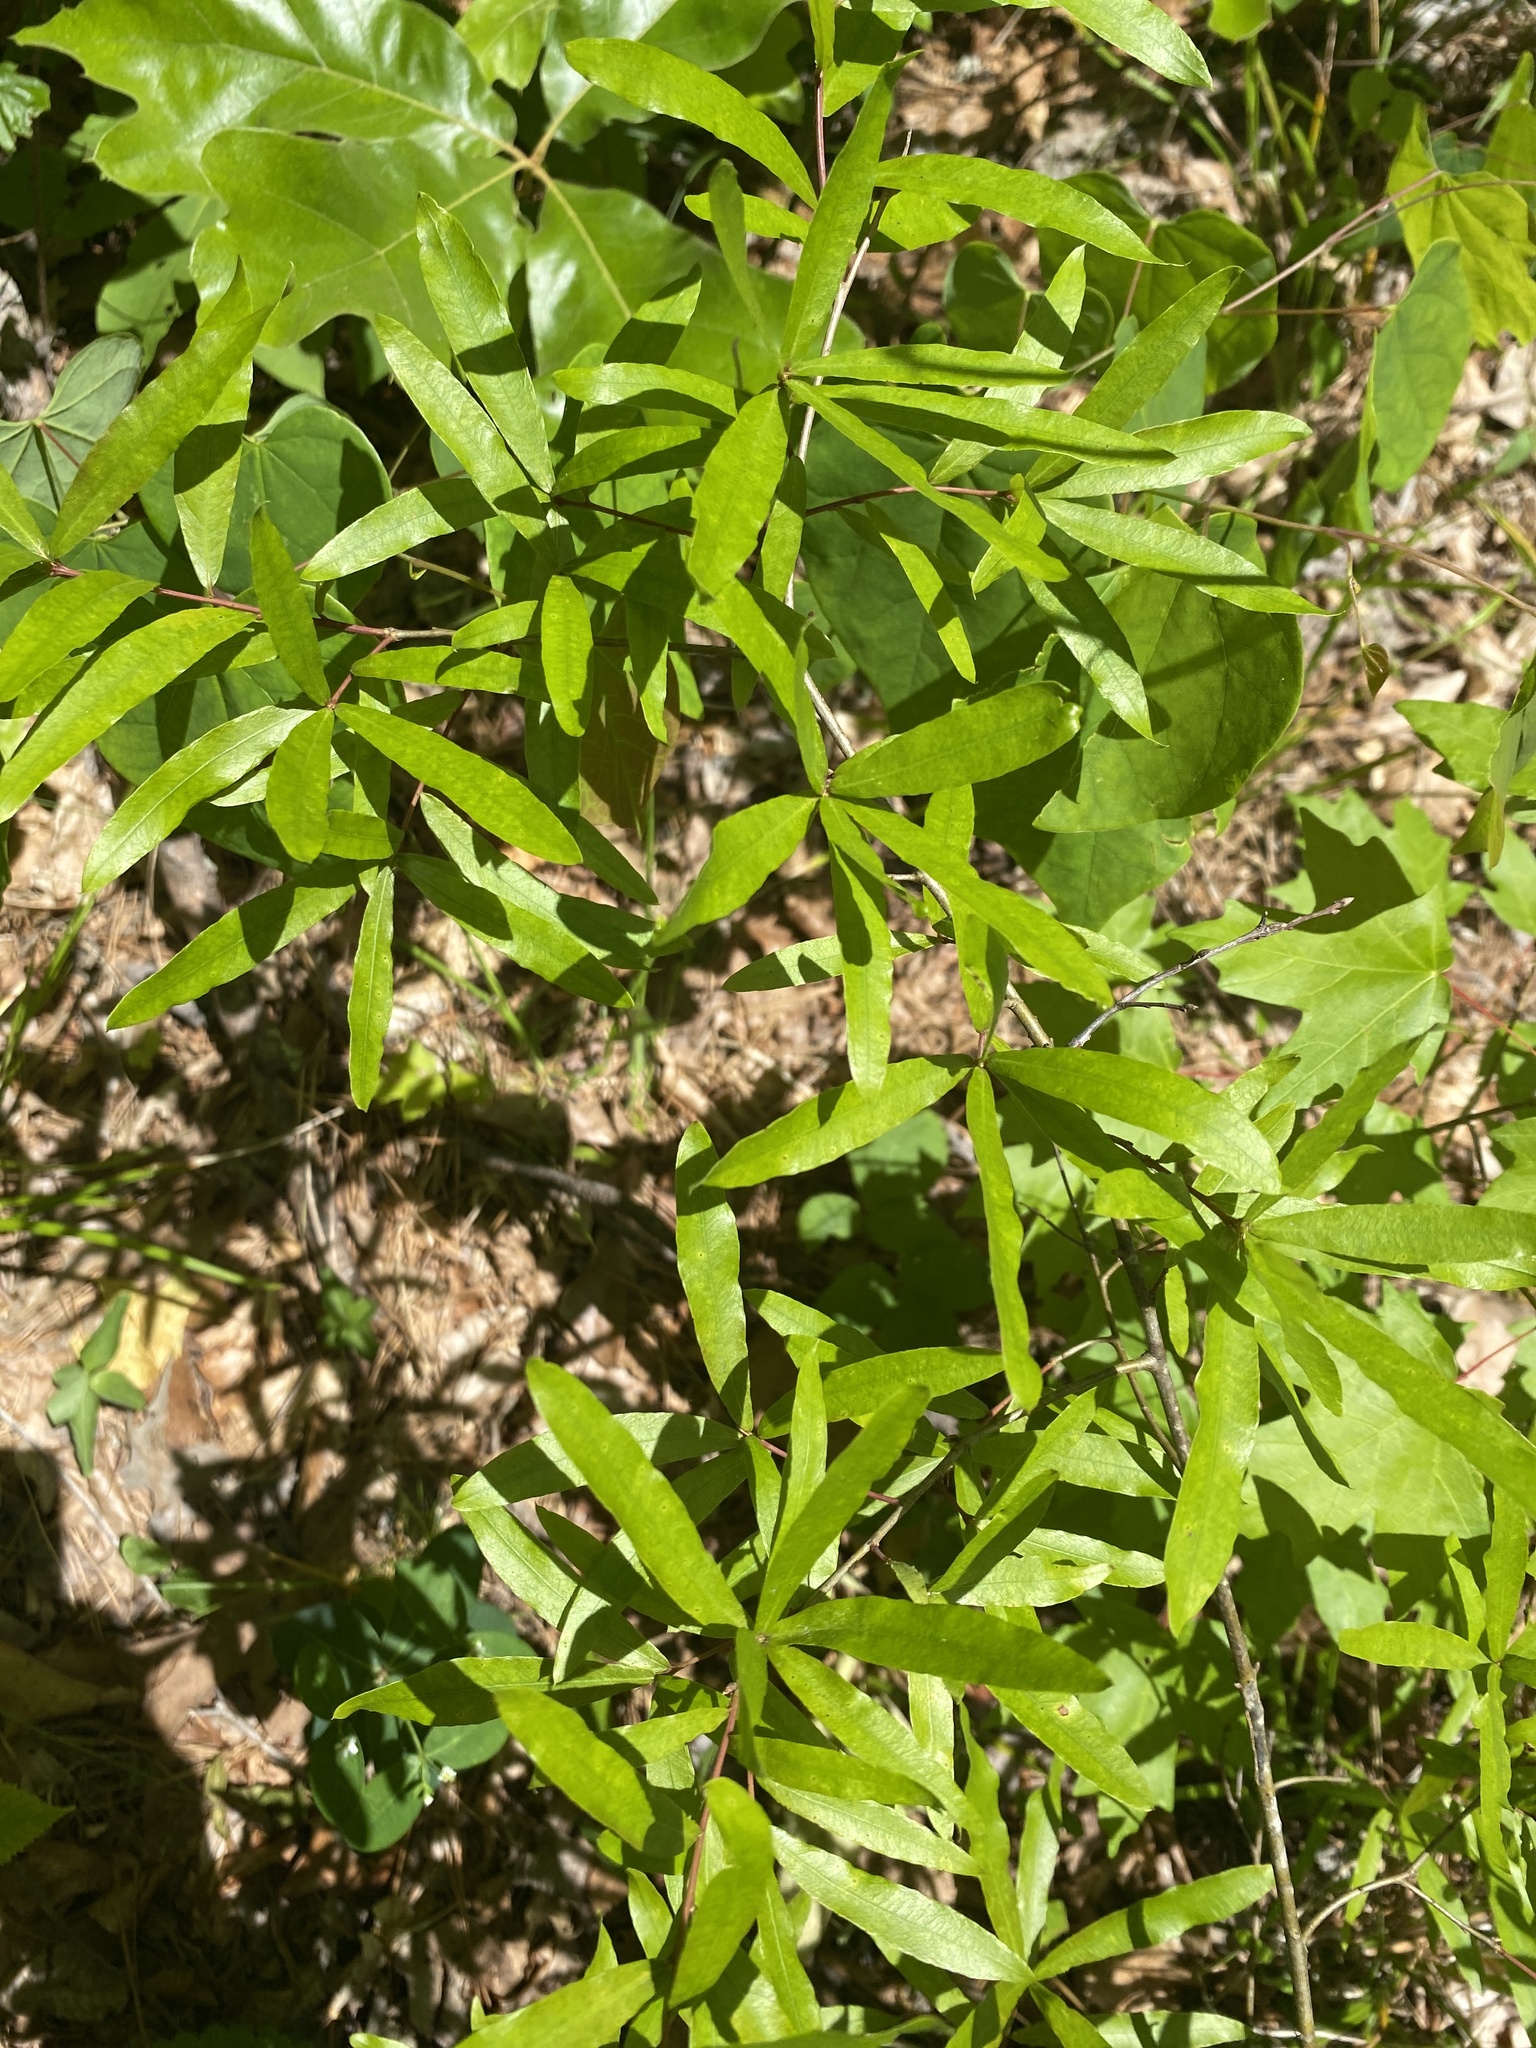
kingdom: Plantae
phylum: Tracheophyta
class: Magnoliopsida
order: Fagales
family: Fagaceae
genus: Quercus
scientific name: Quercus phellos
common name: Willow oak
